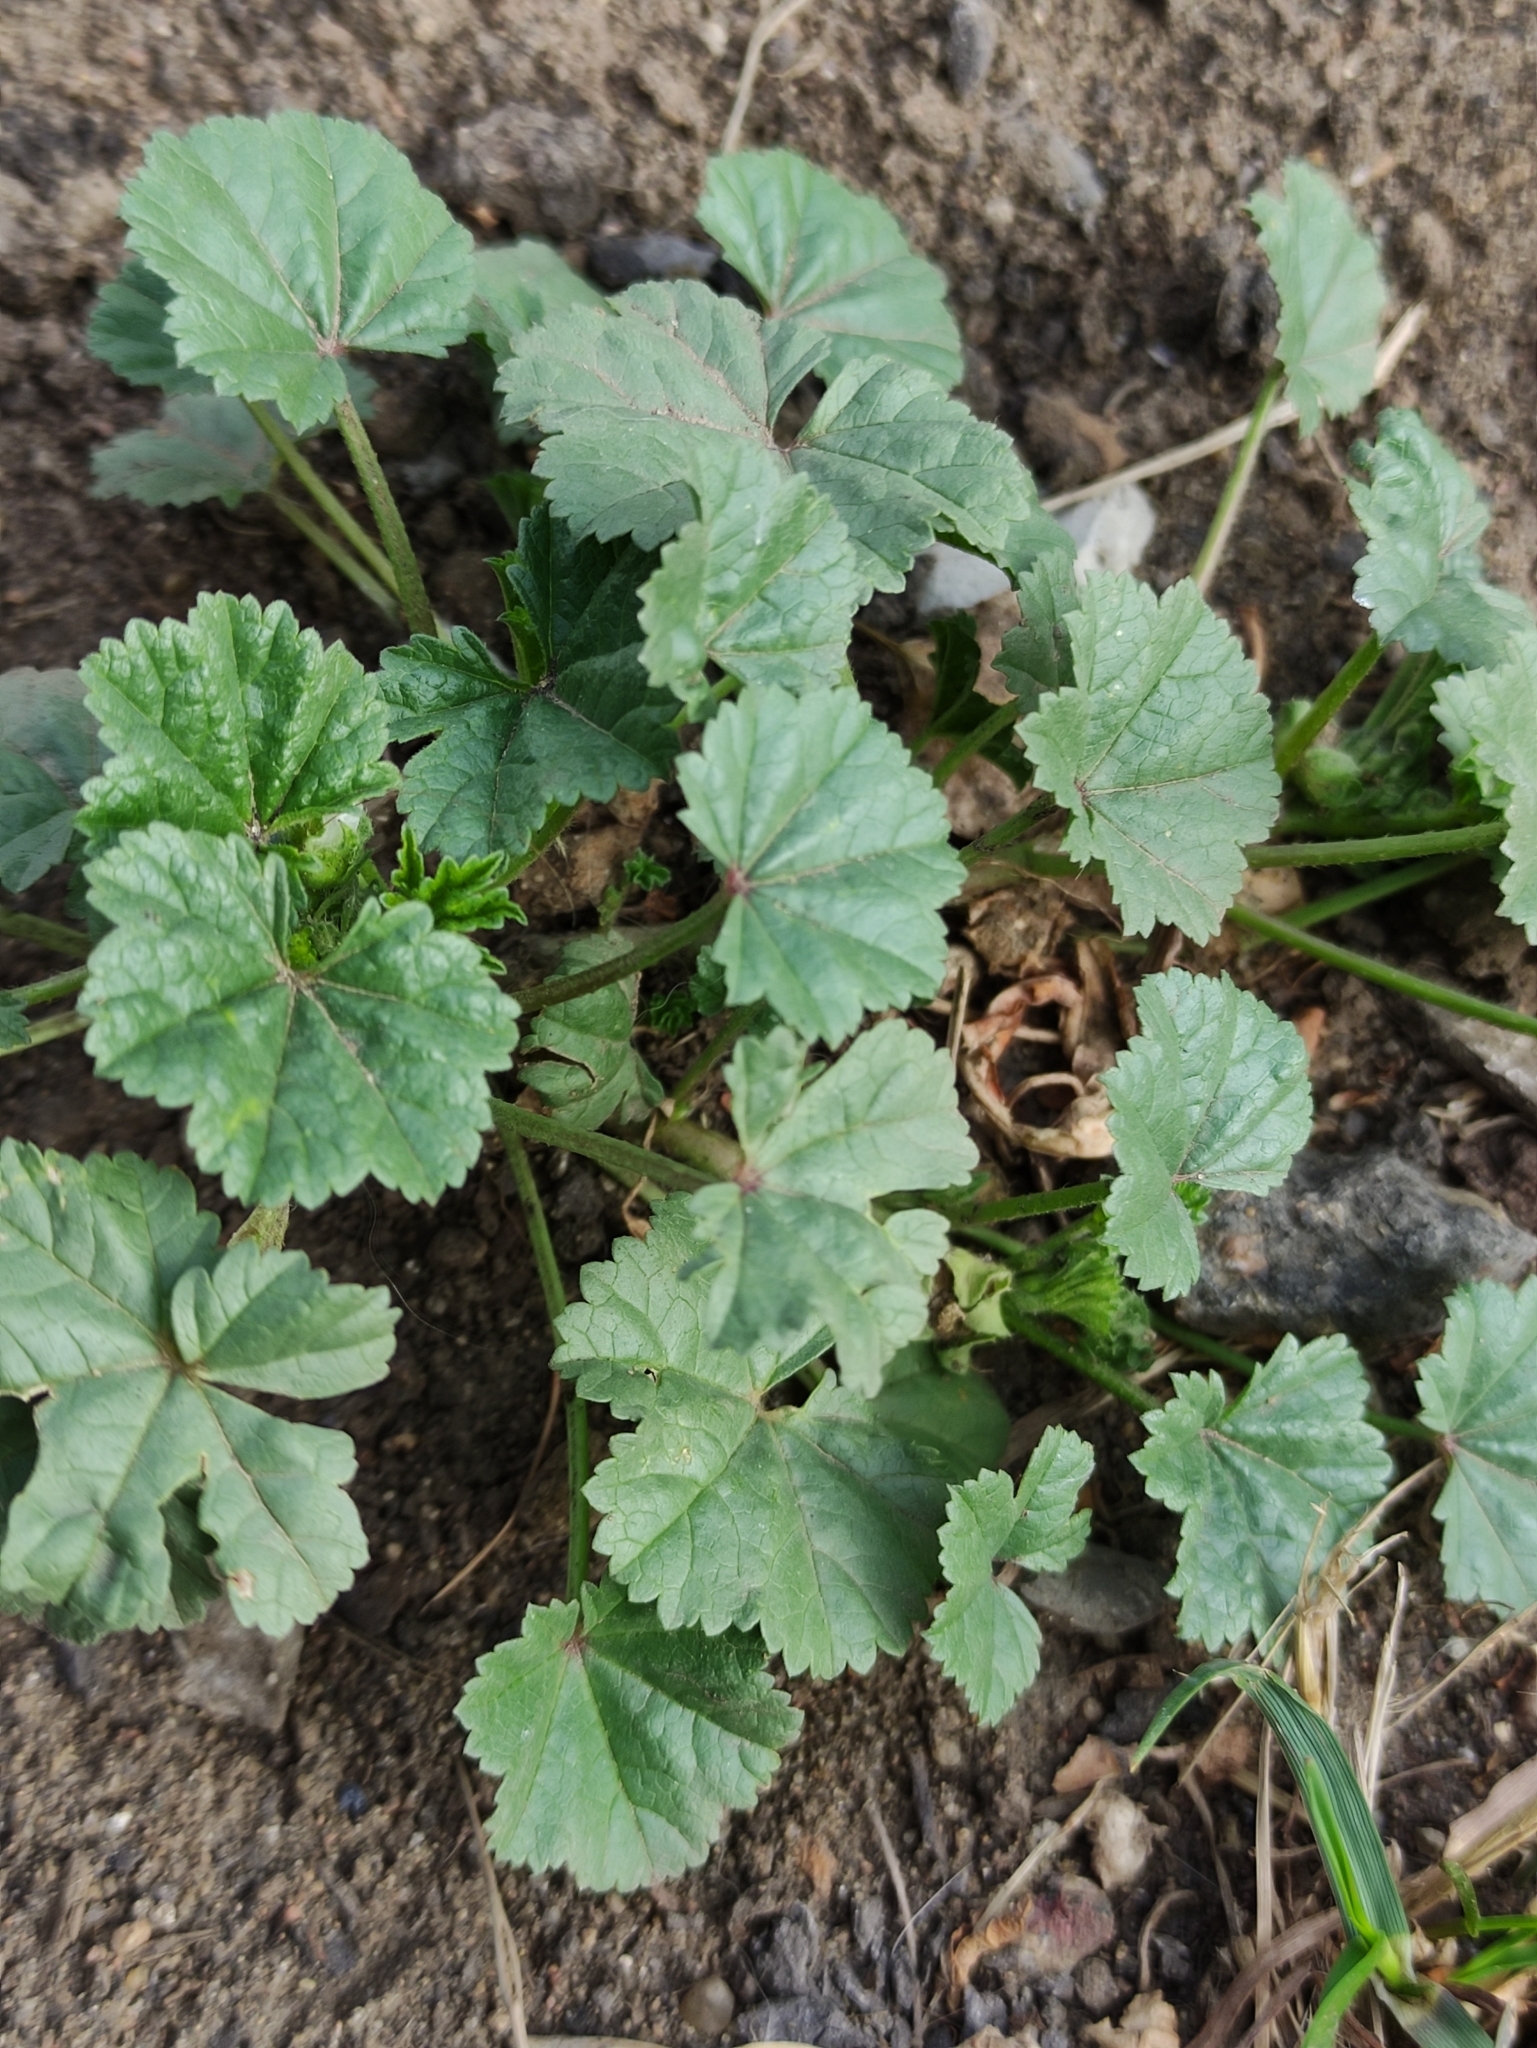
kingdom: Plantae
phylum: Tracheophyta
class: Magnoliopsida
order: Malvales
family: Malvaceae
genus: Malva
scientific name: Malva pusilla
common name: Small mallow
